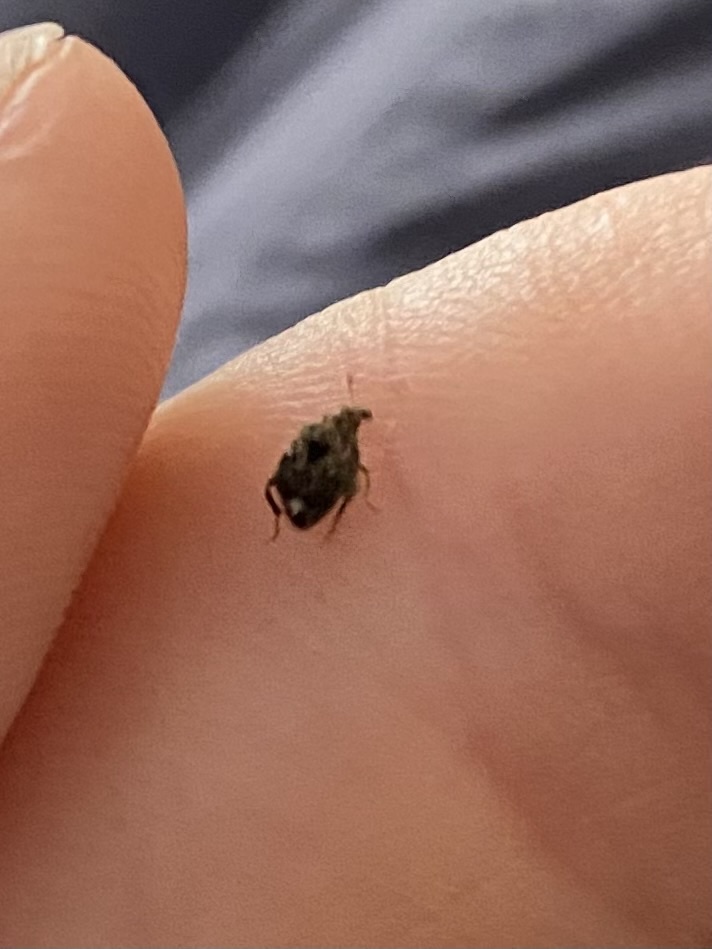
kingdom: Animalia
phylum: Arthropoda
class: Insecta
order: Coleoptera
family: Chrysomelidae
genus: Gibbobruchus
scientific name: Gibbobruchus mimus
